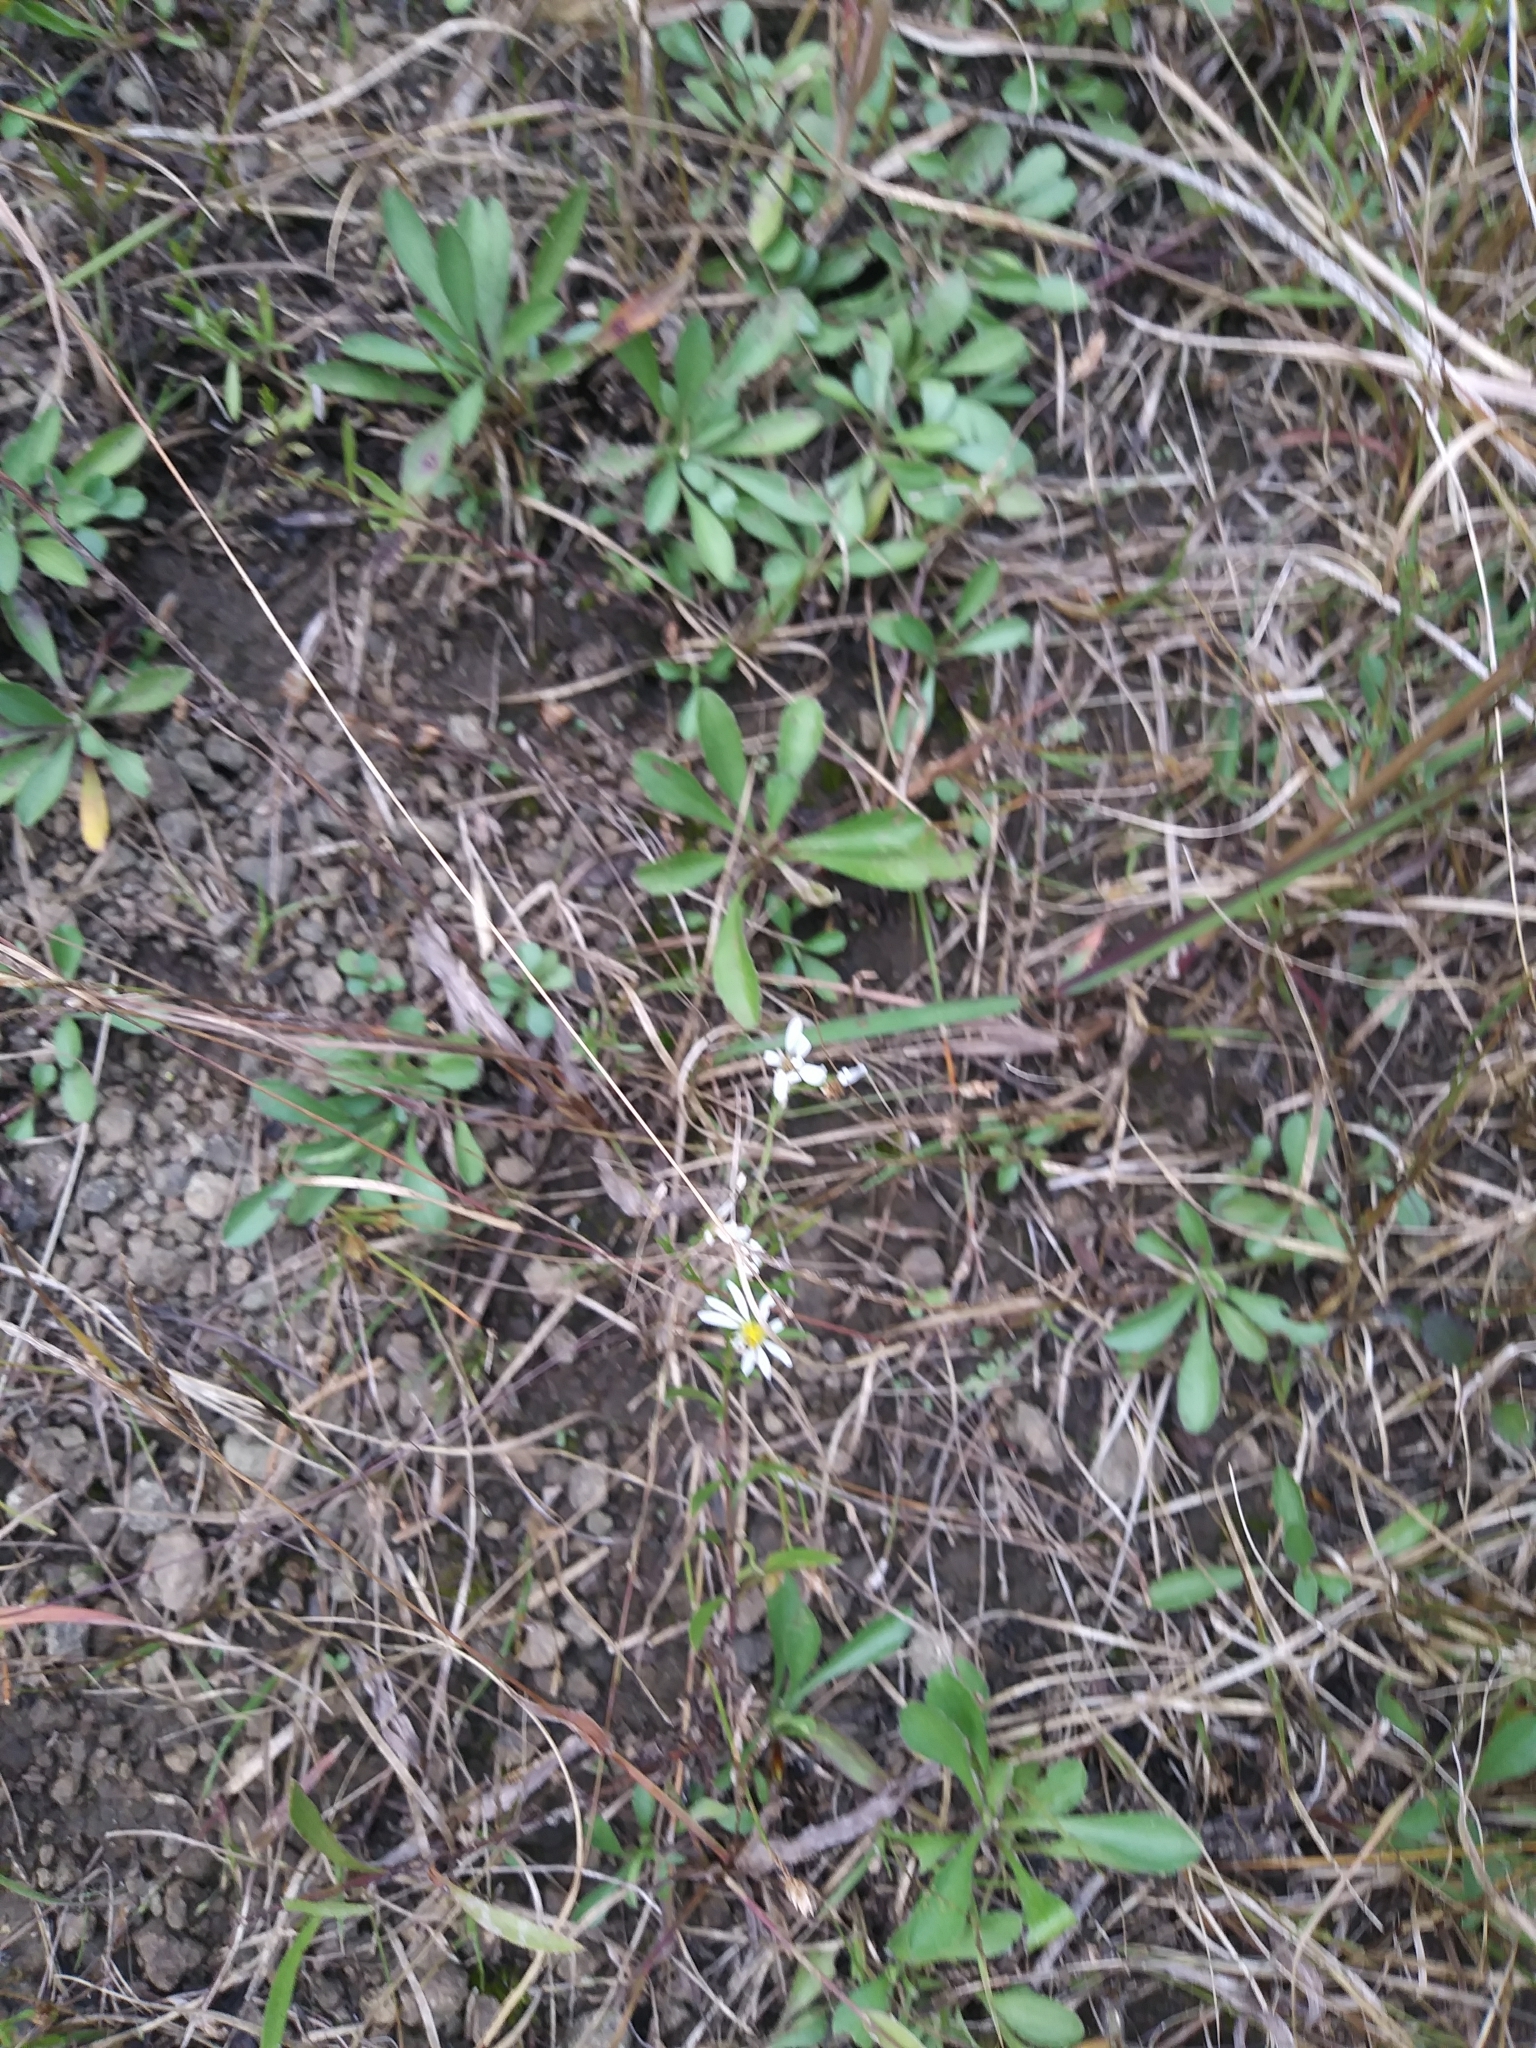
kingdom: Plantae
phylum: Tracheophyta
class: Magnoliopsida
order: Asterales
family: Asteraceae
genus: Symphyotrichum
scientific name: Symphyotrichum depauperatum
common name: Serpentine aster
